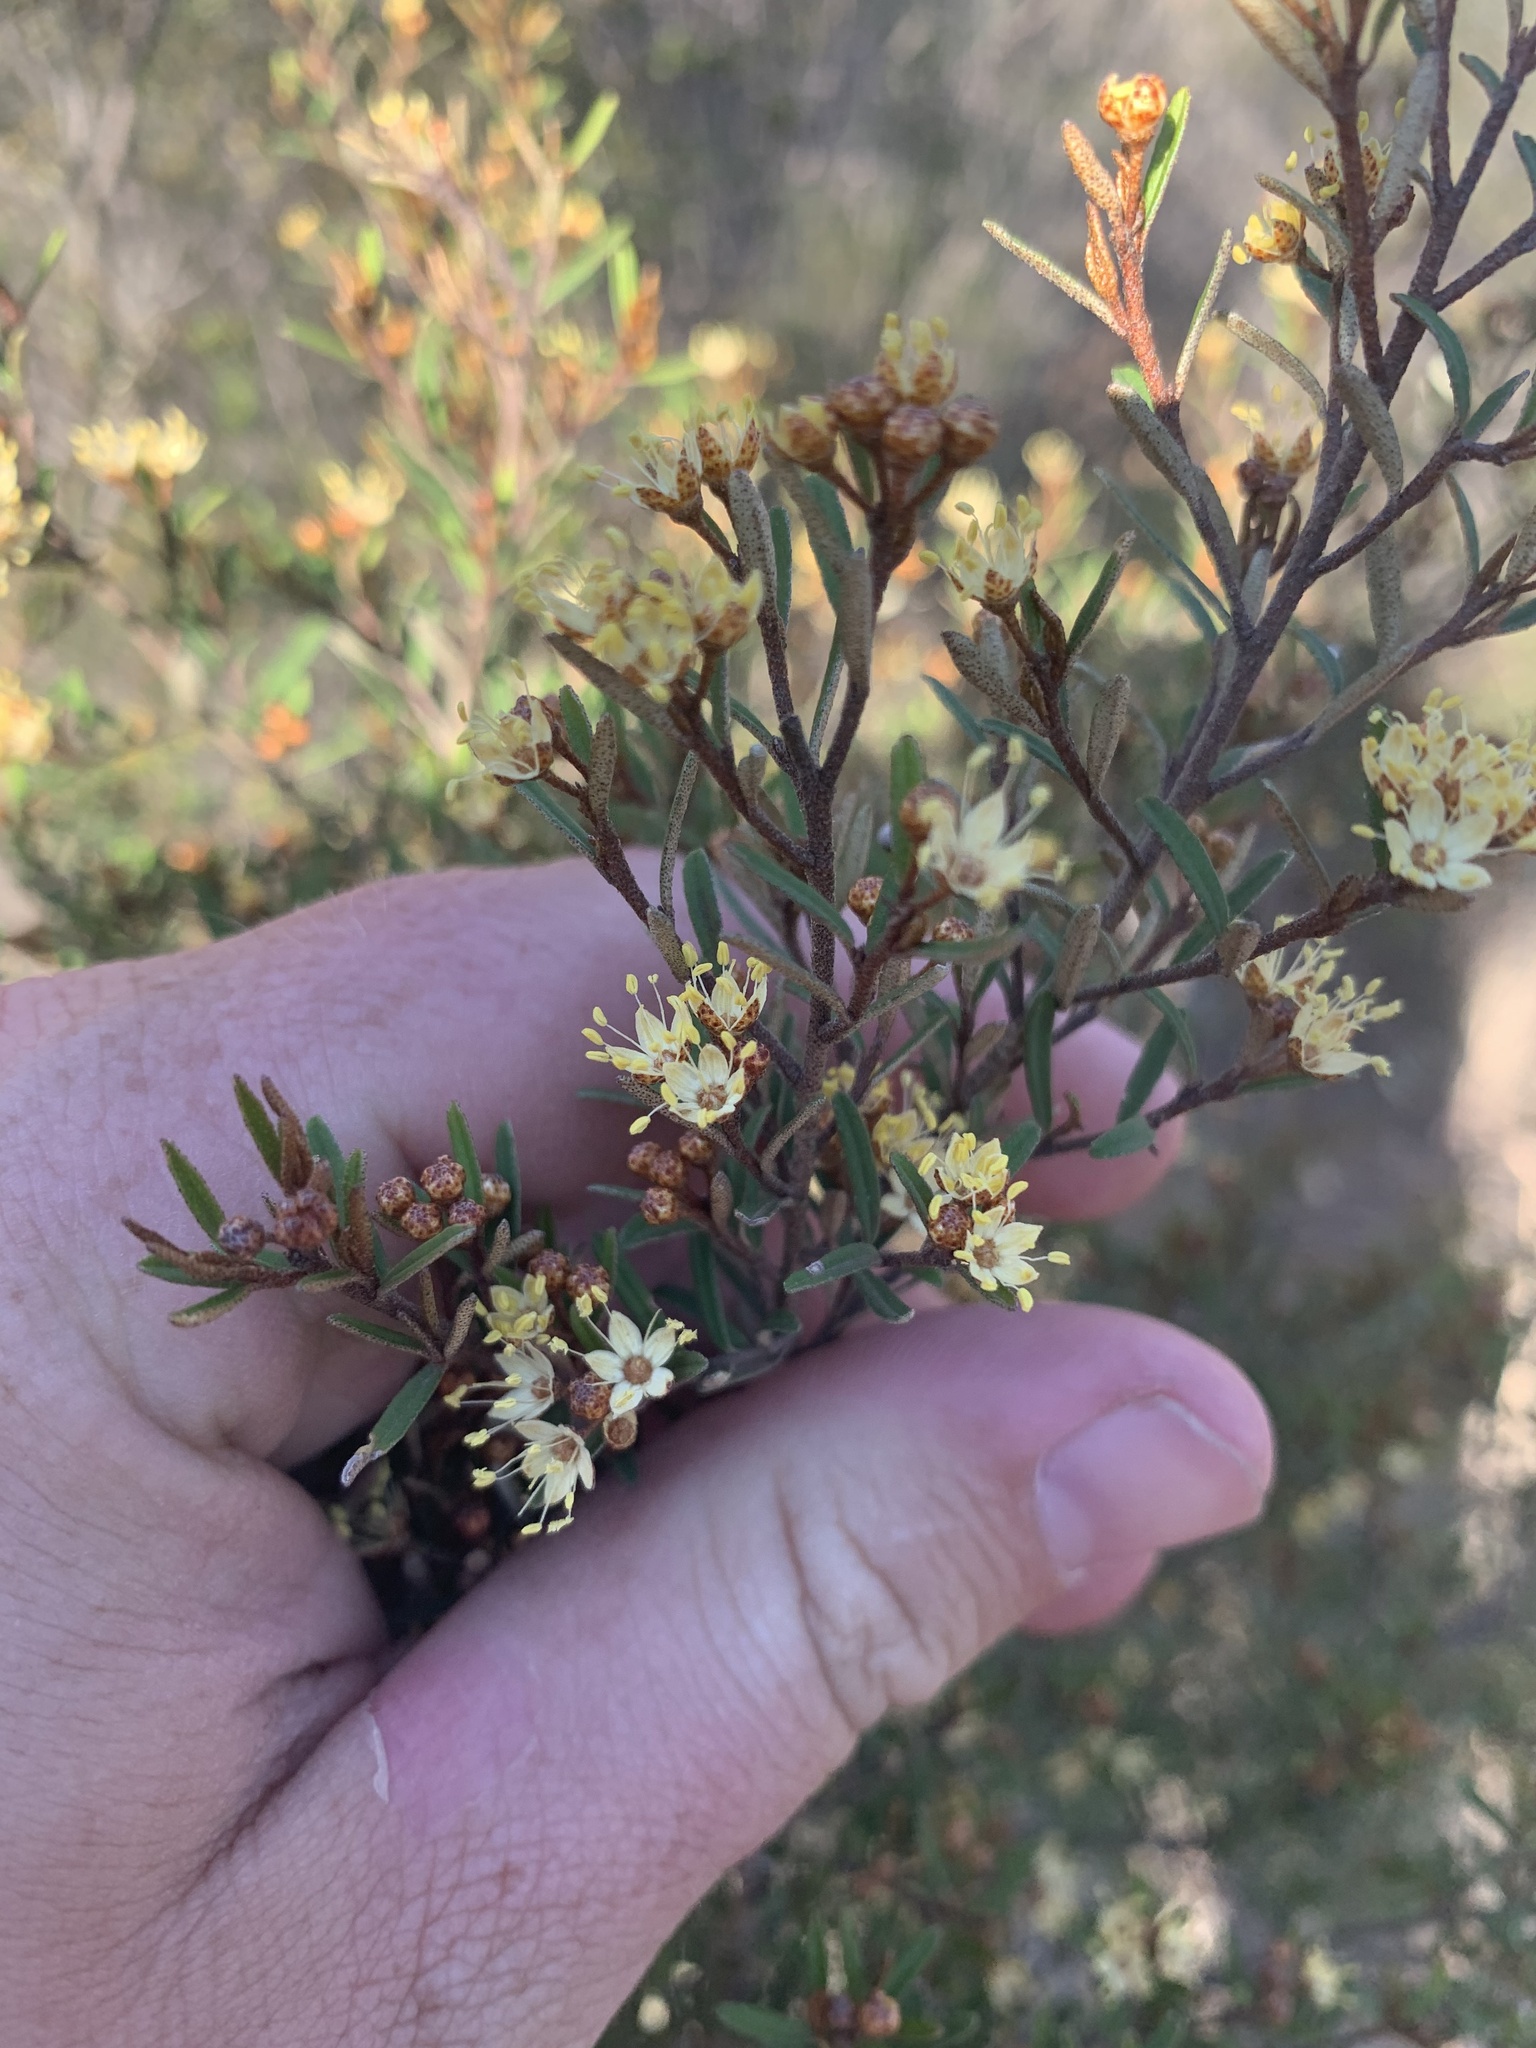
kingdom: Plantae
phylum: Tracheophyta
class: Magnoliopsida
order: Sapindales
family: Rutaceae
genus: Phebalium
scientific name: Phebalium squamulosum
